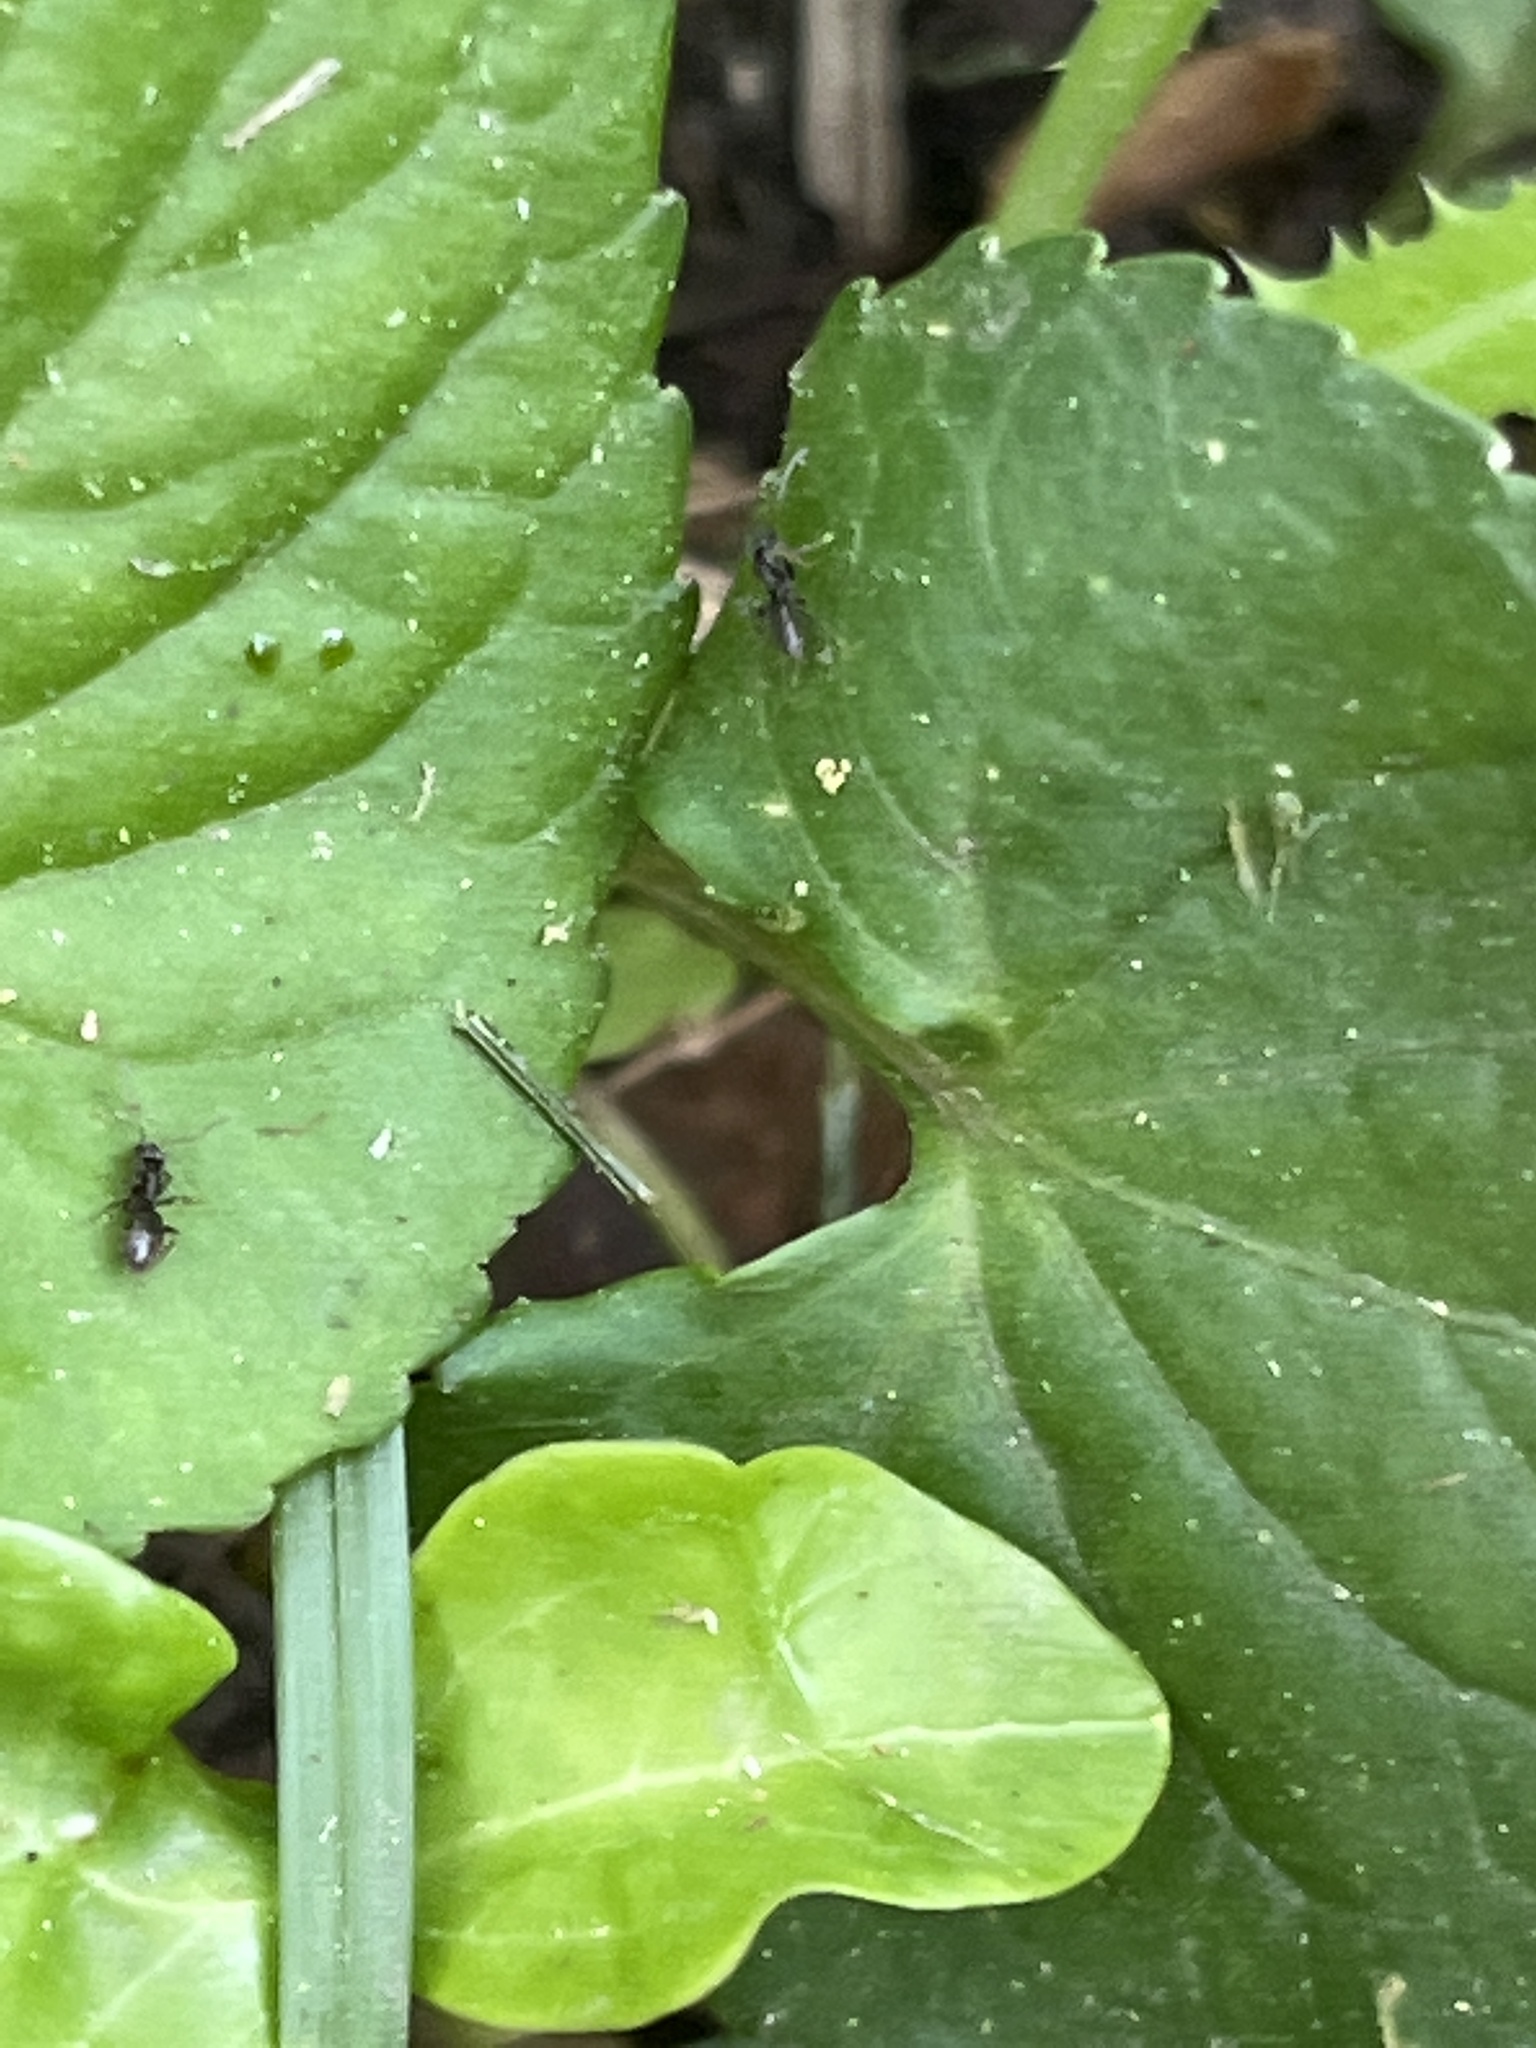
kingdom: Animalia
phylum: Arthropoda
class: Insecta
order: Hymenoptera
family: Formicidae
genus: Tapinoma
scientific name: Tapinoma sessile
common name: Odorous house ant
